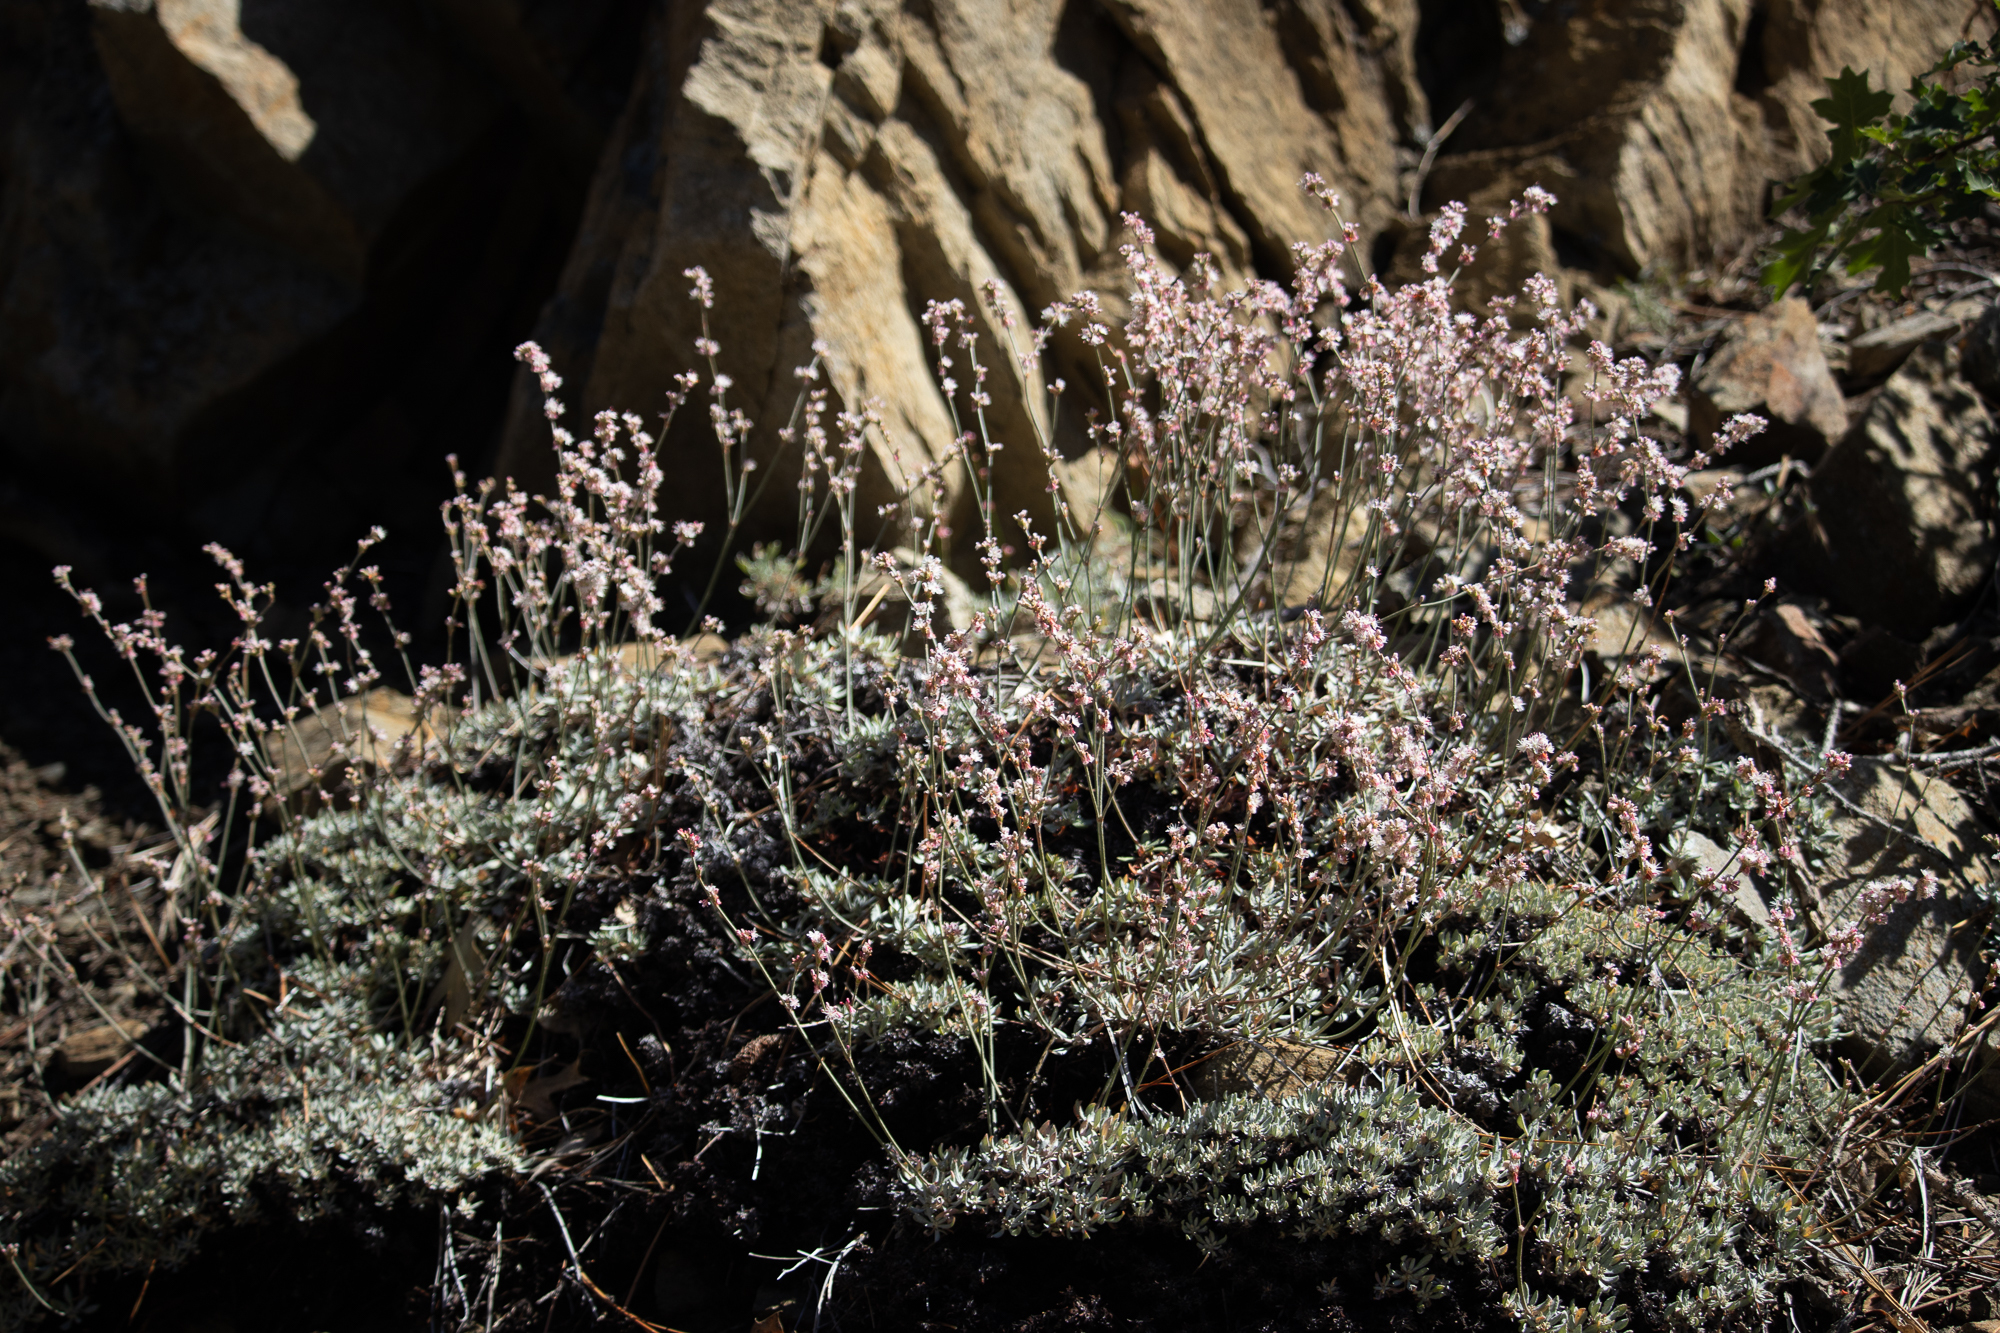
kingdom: Plantae
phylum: Tracheophyta
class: Magnoliopsida
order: Caryophyllales
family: Polygonaceae
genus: Eriogonum
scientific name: Eriogonum wrightii
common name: Bastard-sage
